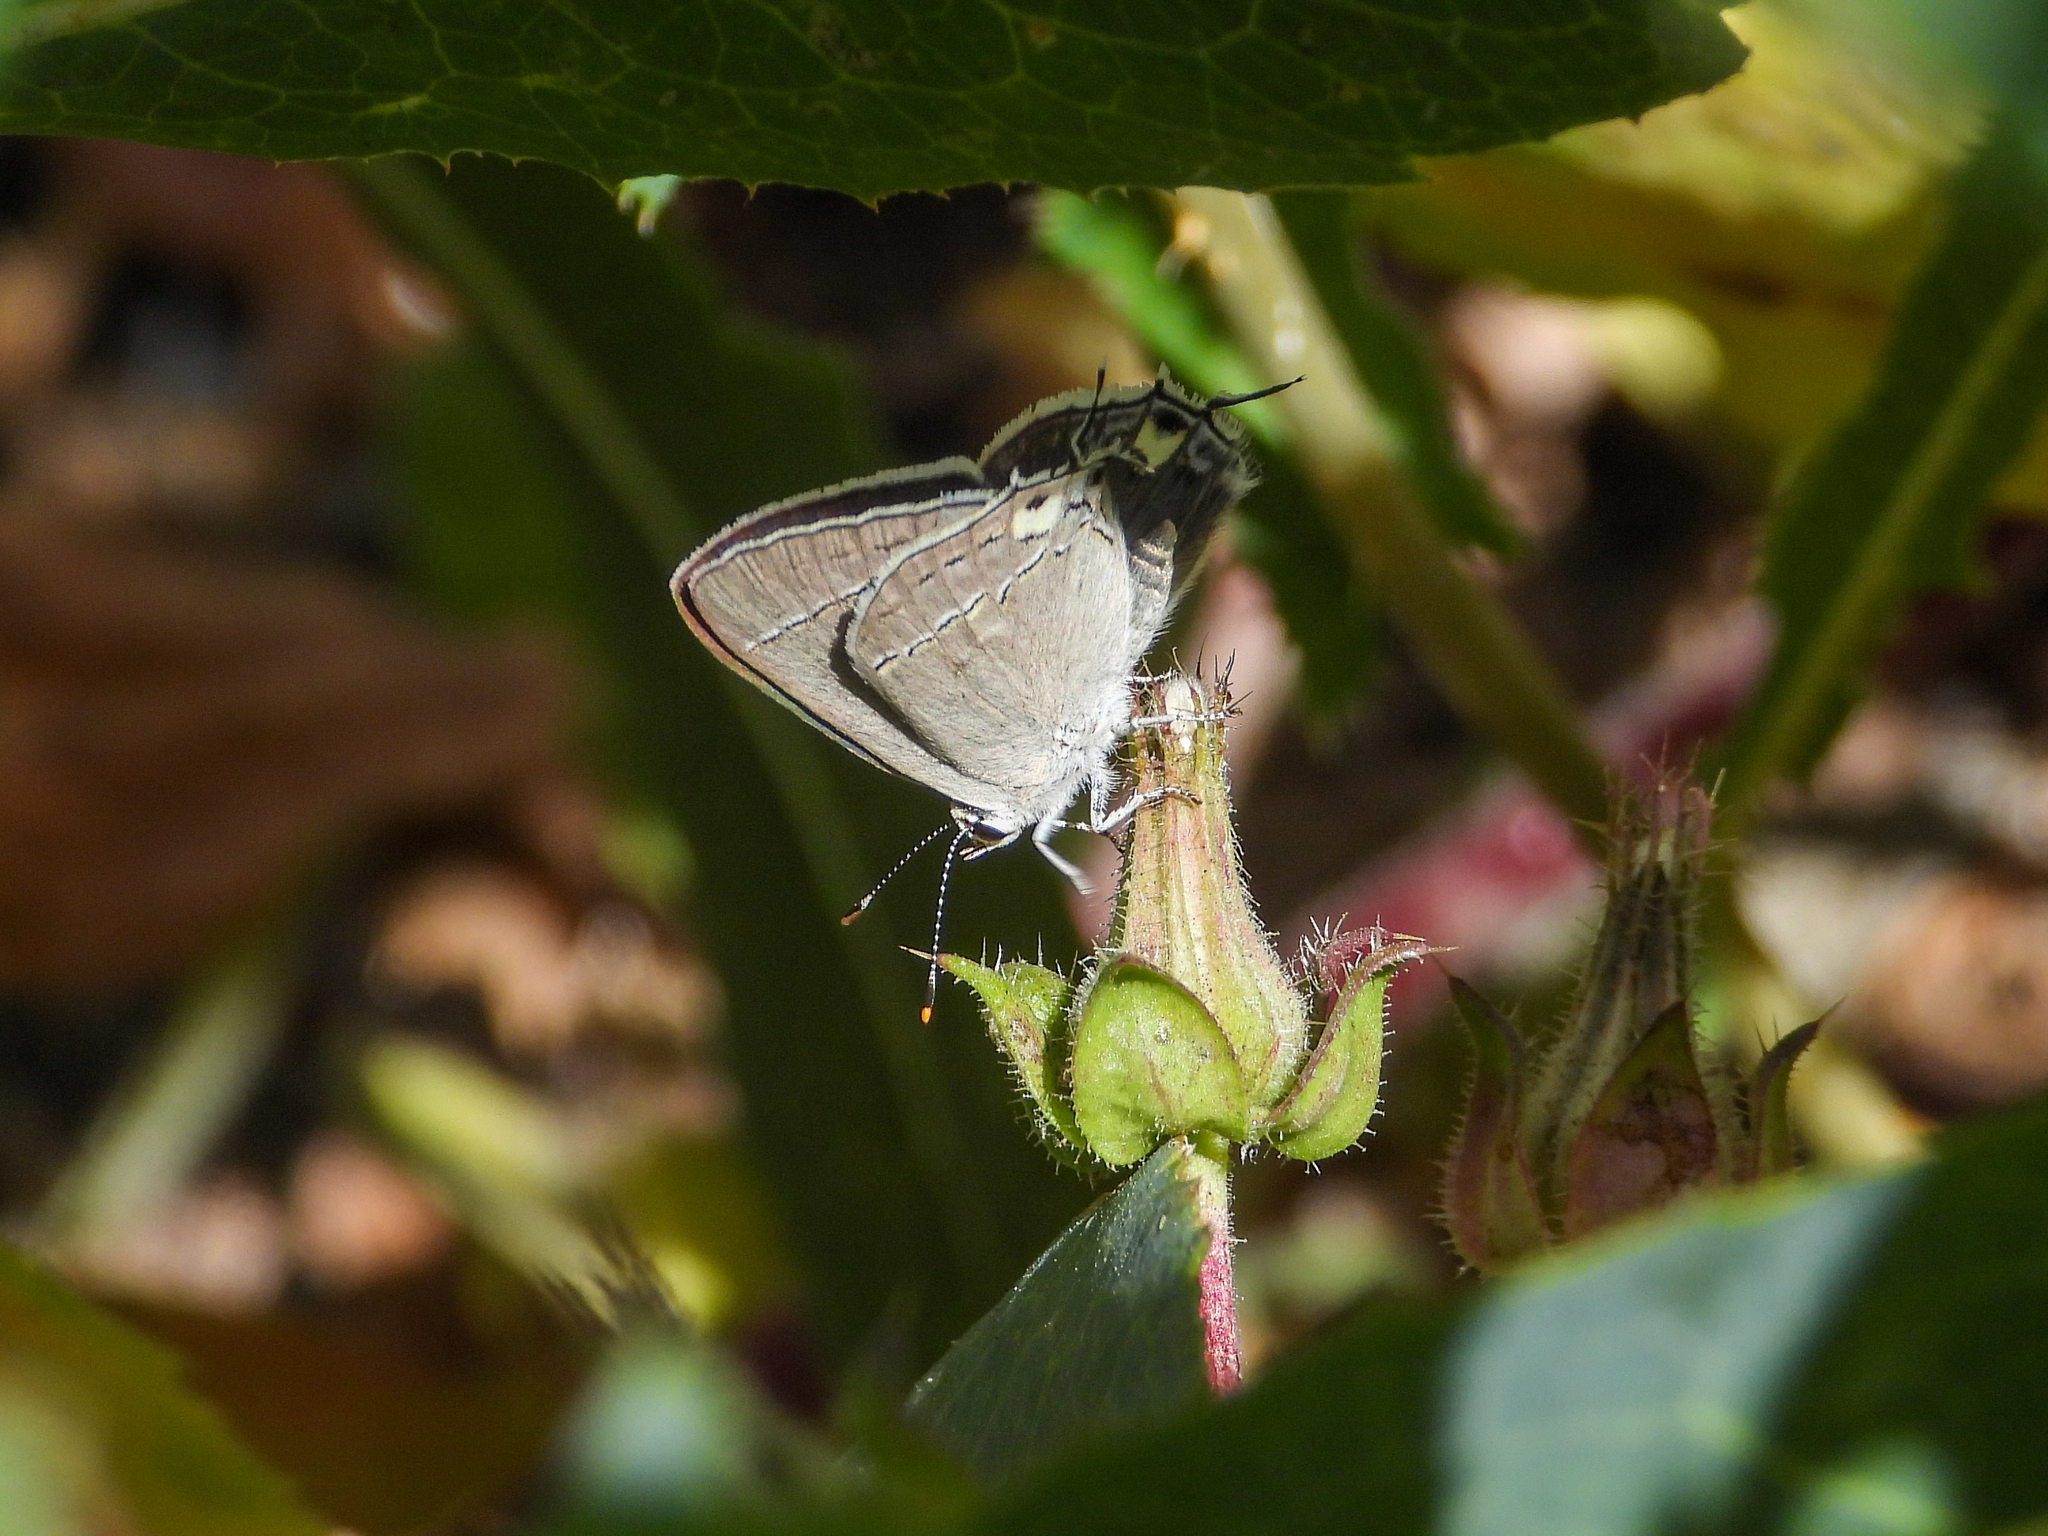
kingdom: Animalia
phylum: Arthropoda
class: Insecta
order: Lepidoptera
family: Lycaenidae
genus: Strymon
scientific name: Strymon melinus
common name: Gray hairstreak
